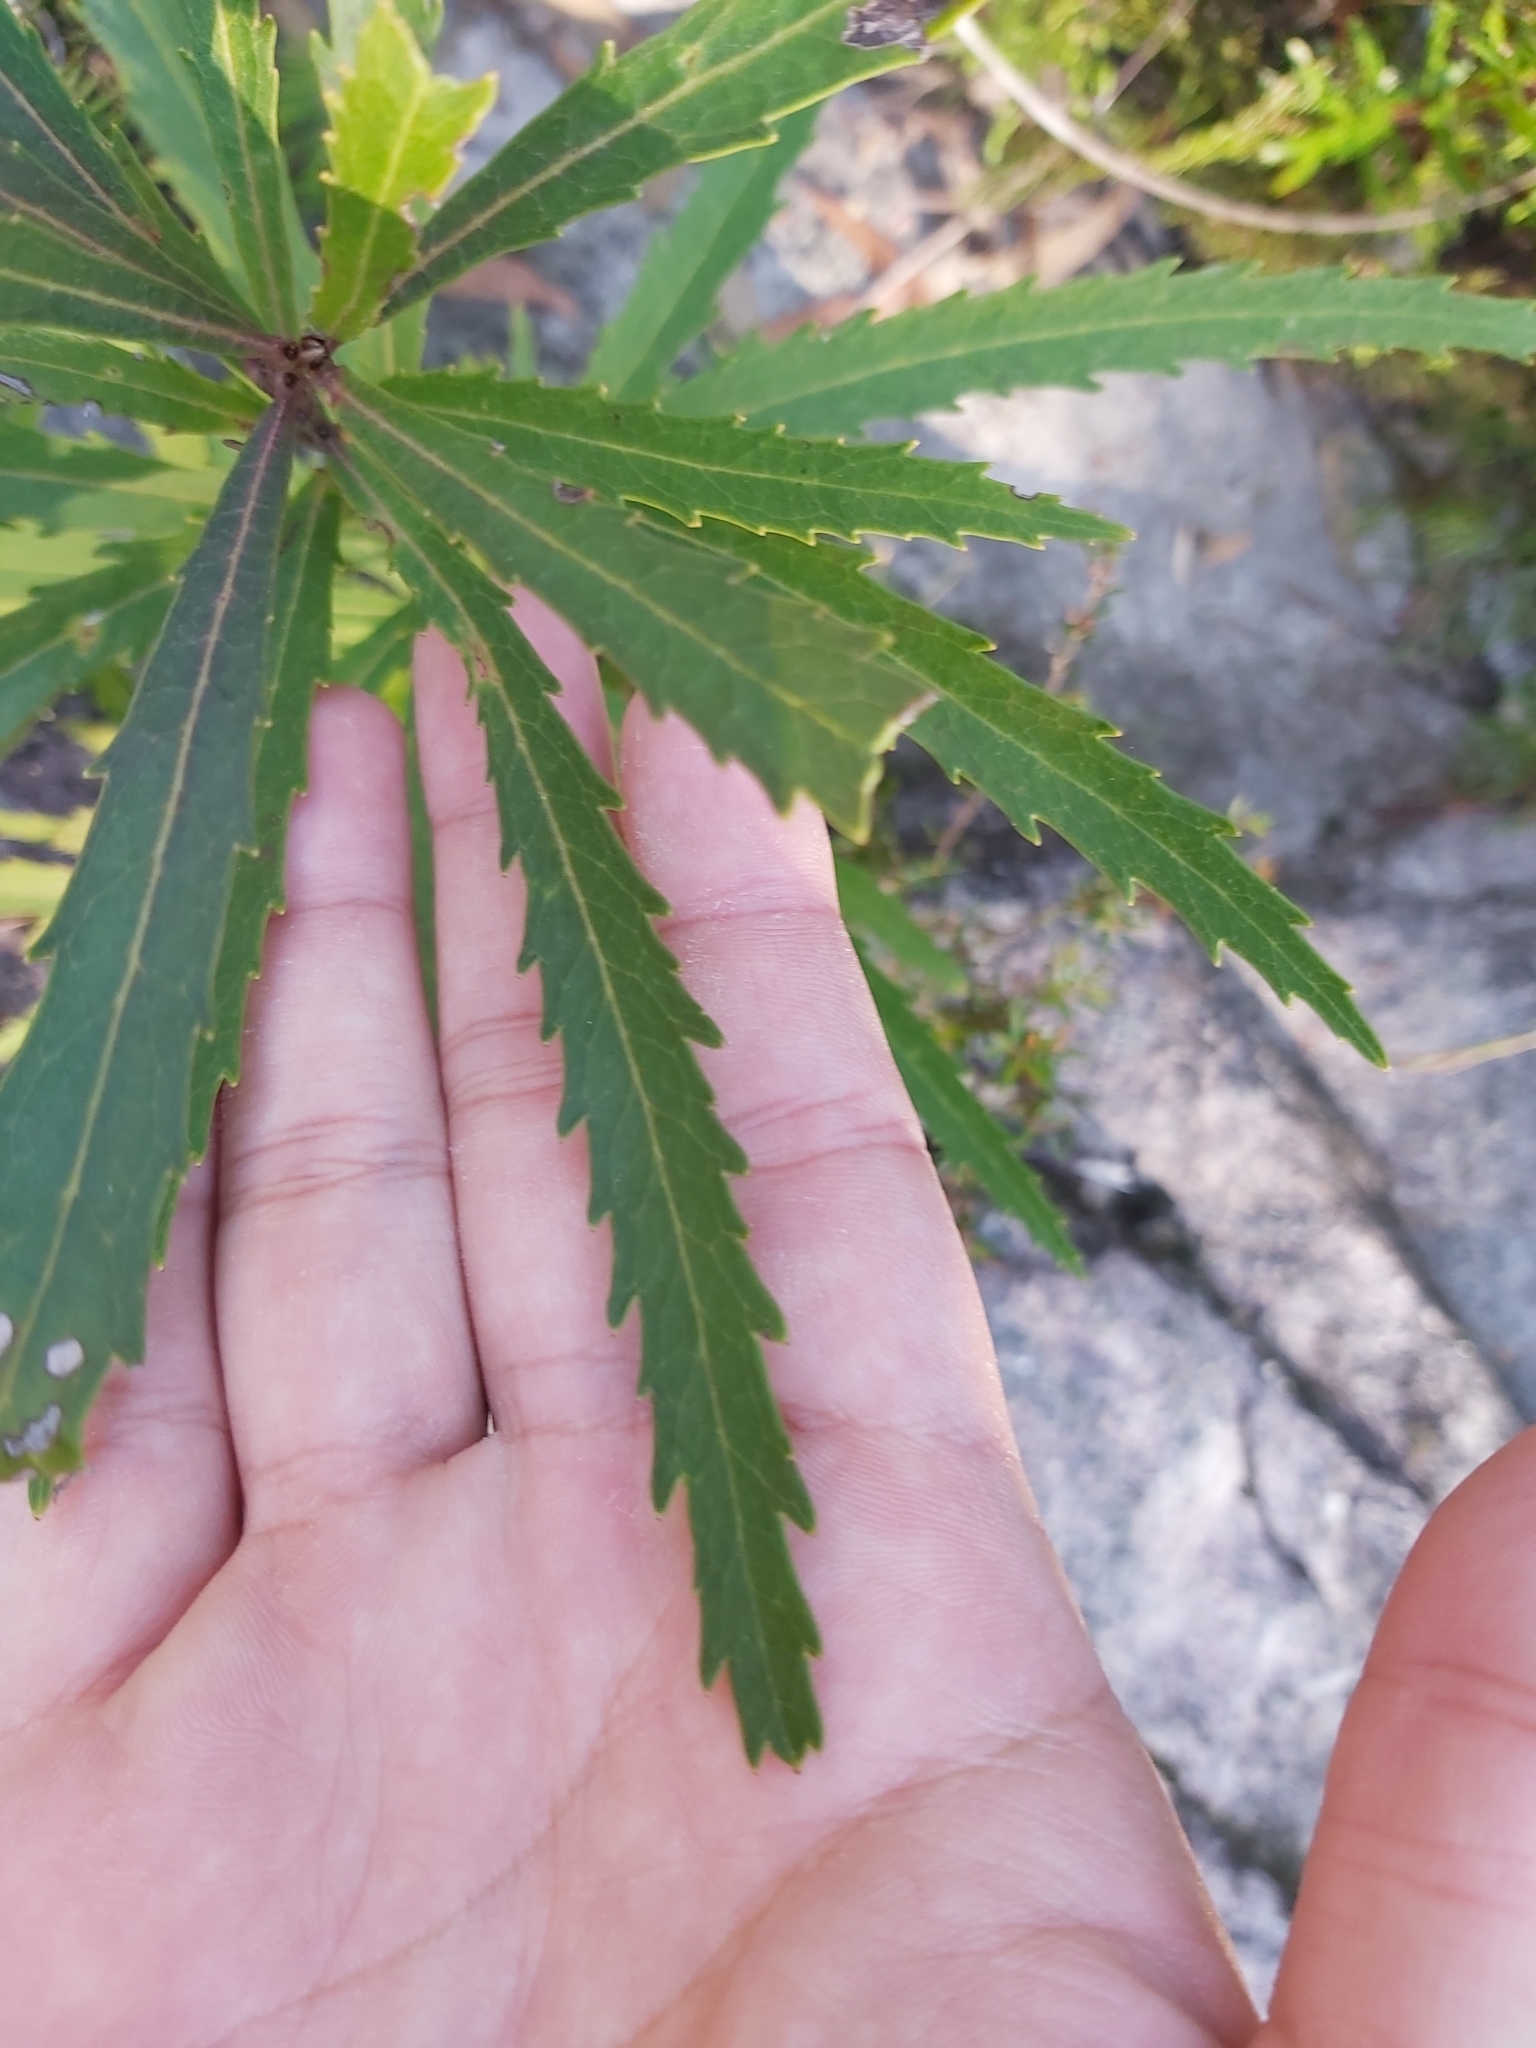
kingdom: Plantae
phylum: Tracheophyta
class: Magnoliopsida
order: Proteales
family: Proteaceae
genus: Lomatia
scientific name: Lomatia myricoides
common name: Longleaf lomatia
